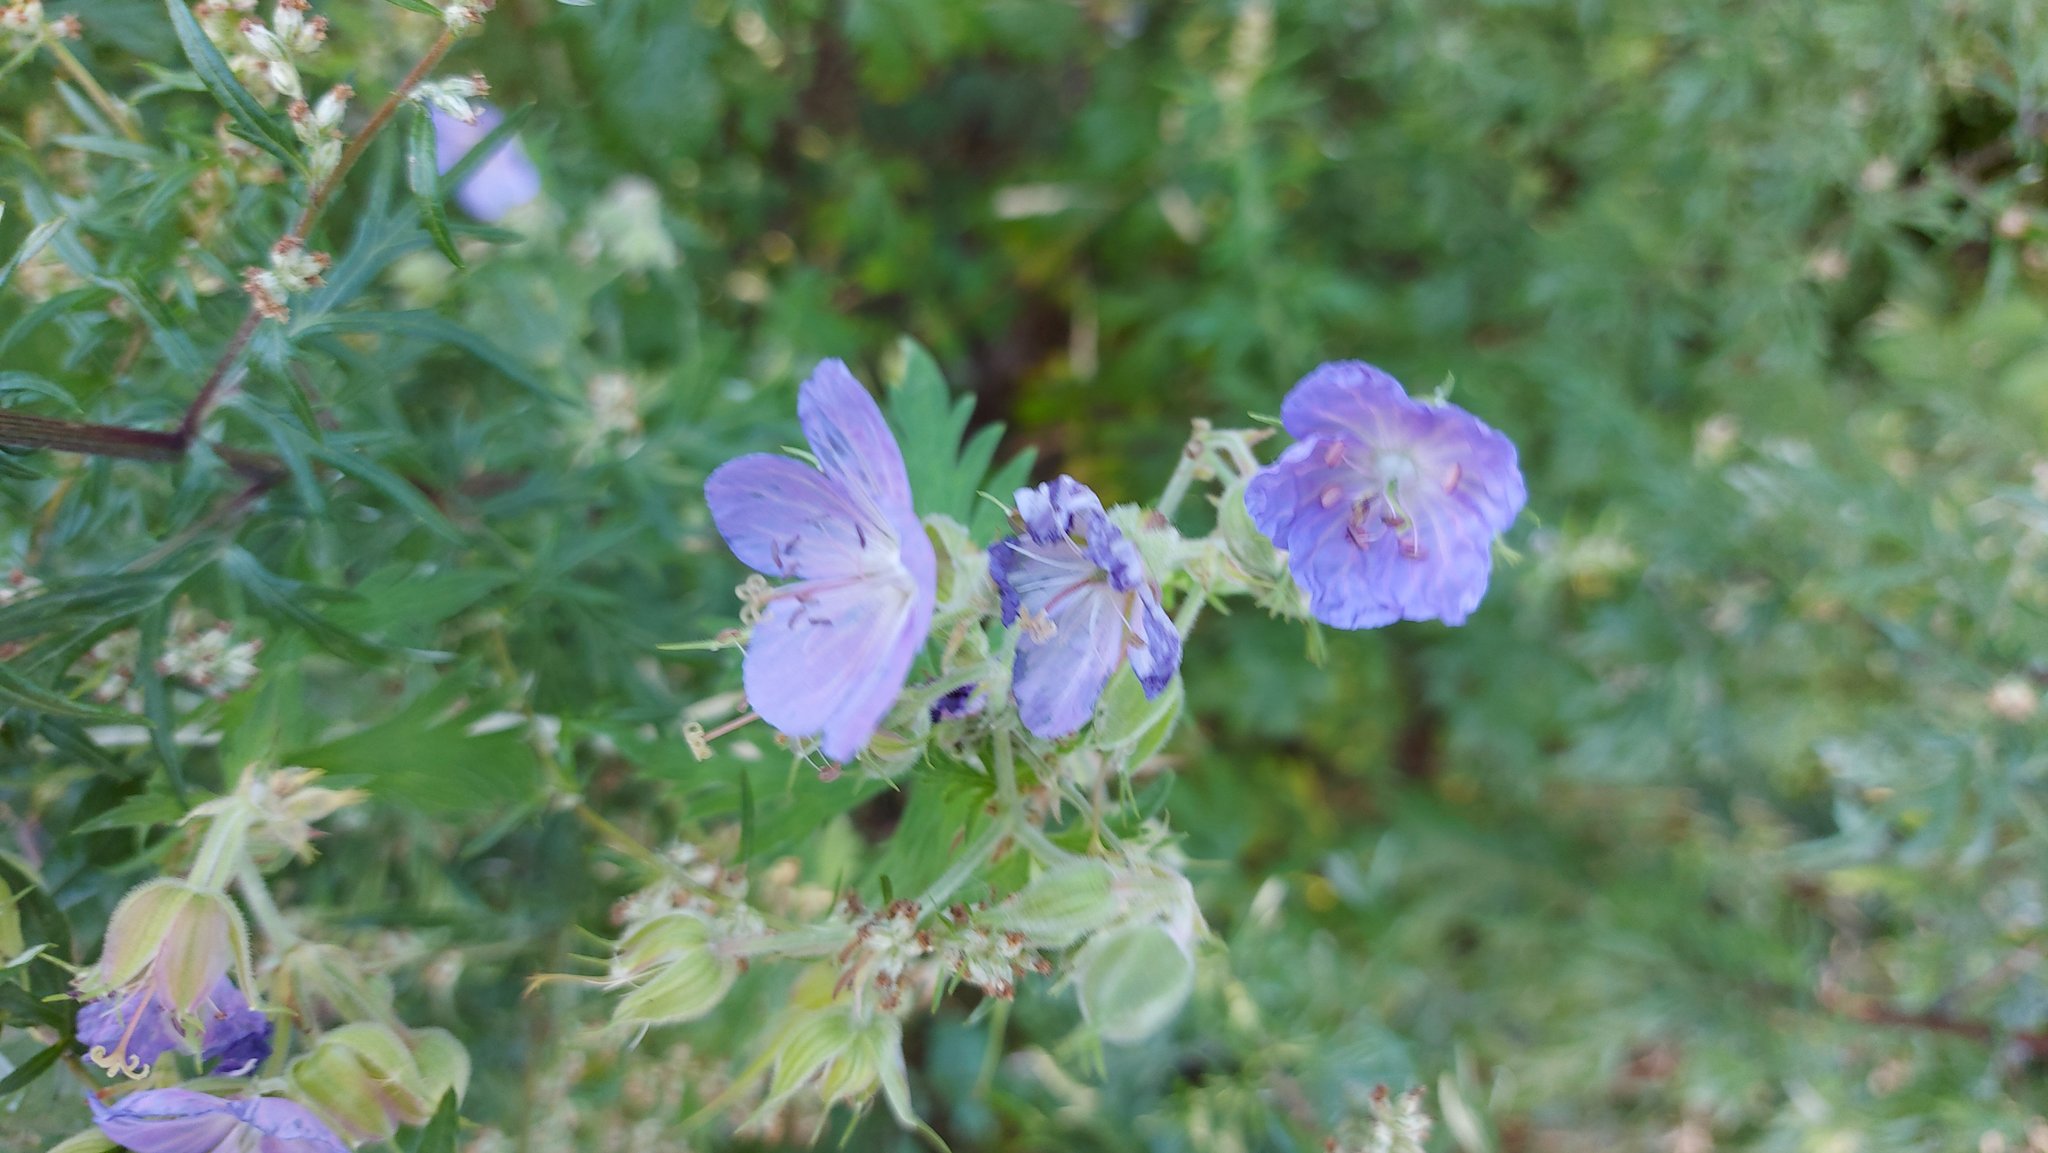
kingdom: Plantae
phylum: Tracheophyta
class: Magnoliopsida
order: Geraniales
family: Geraniaceae
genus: Geranium
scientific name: Geranium pratense
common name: Meadow crane's-bill
